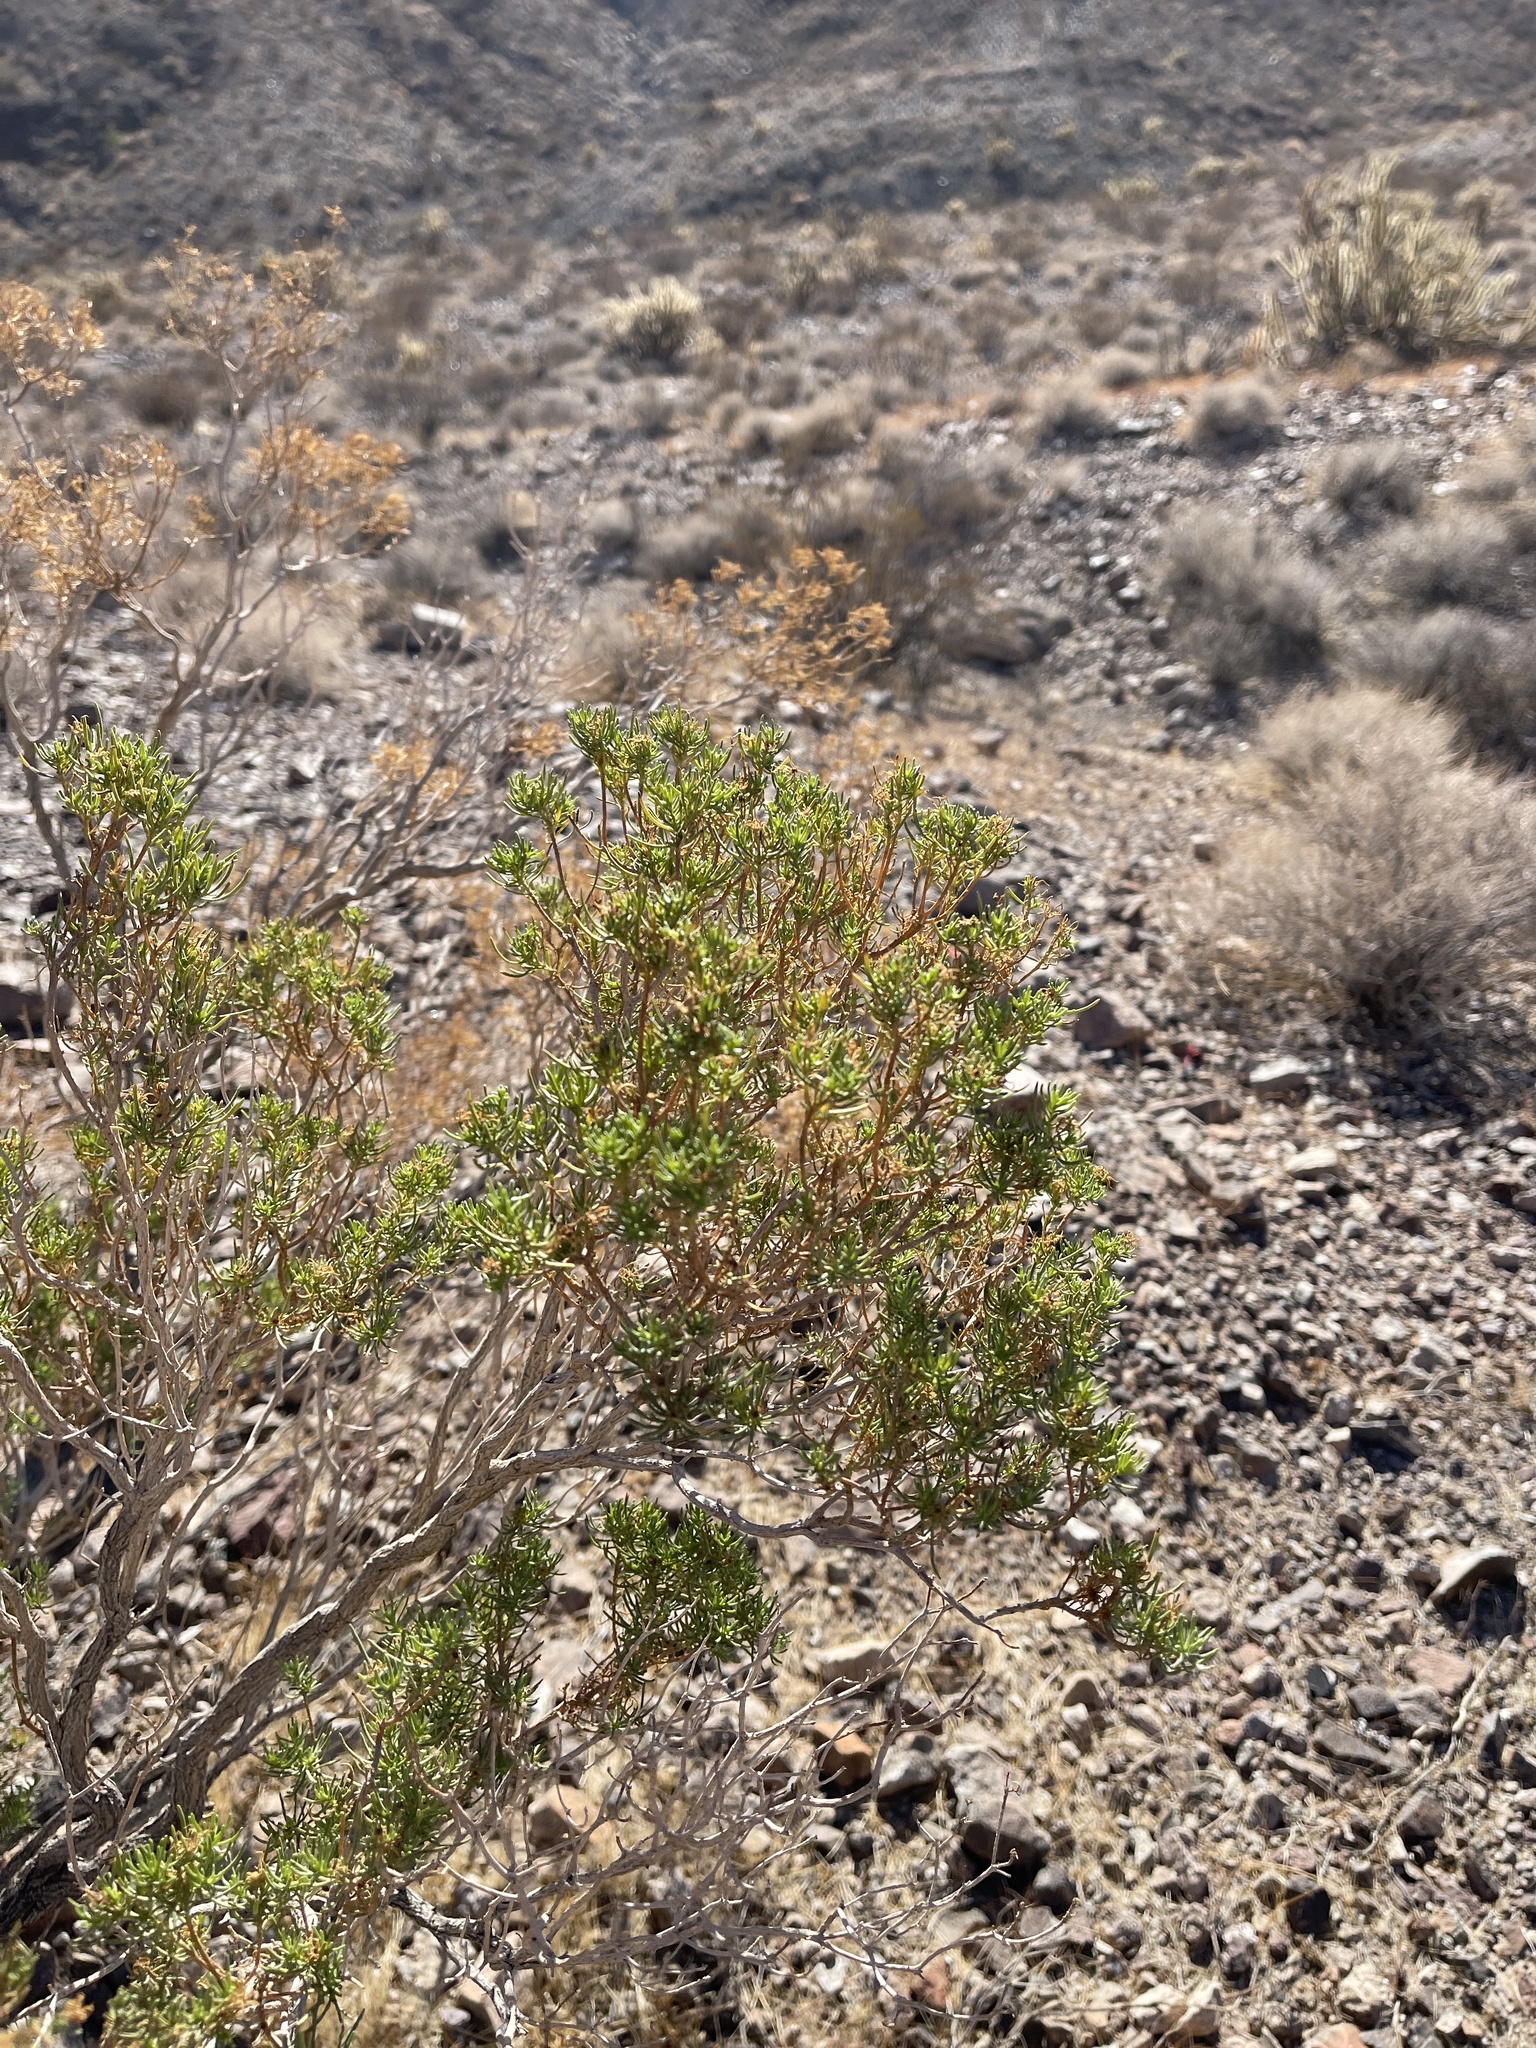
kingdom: Plantae
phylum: Tracheophyta
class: Magnoliopsida
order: Asterales
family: Asteraceae
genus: Peucephyllum
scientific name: Peucephyllum schottii
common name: Pygmy-cedar
